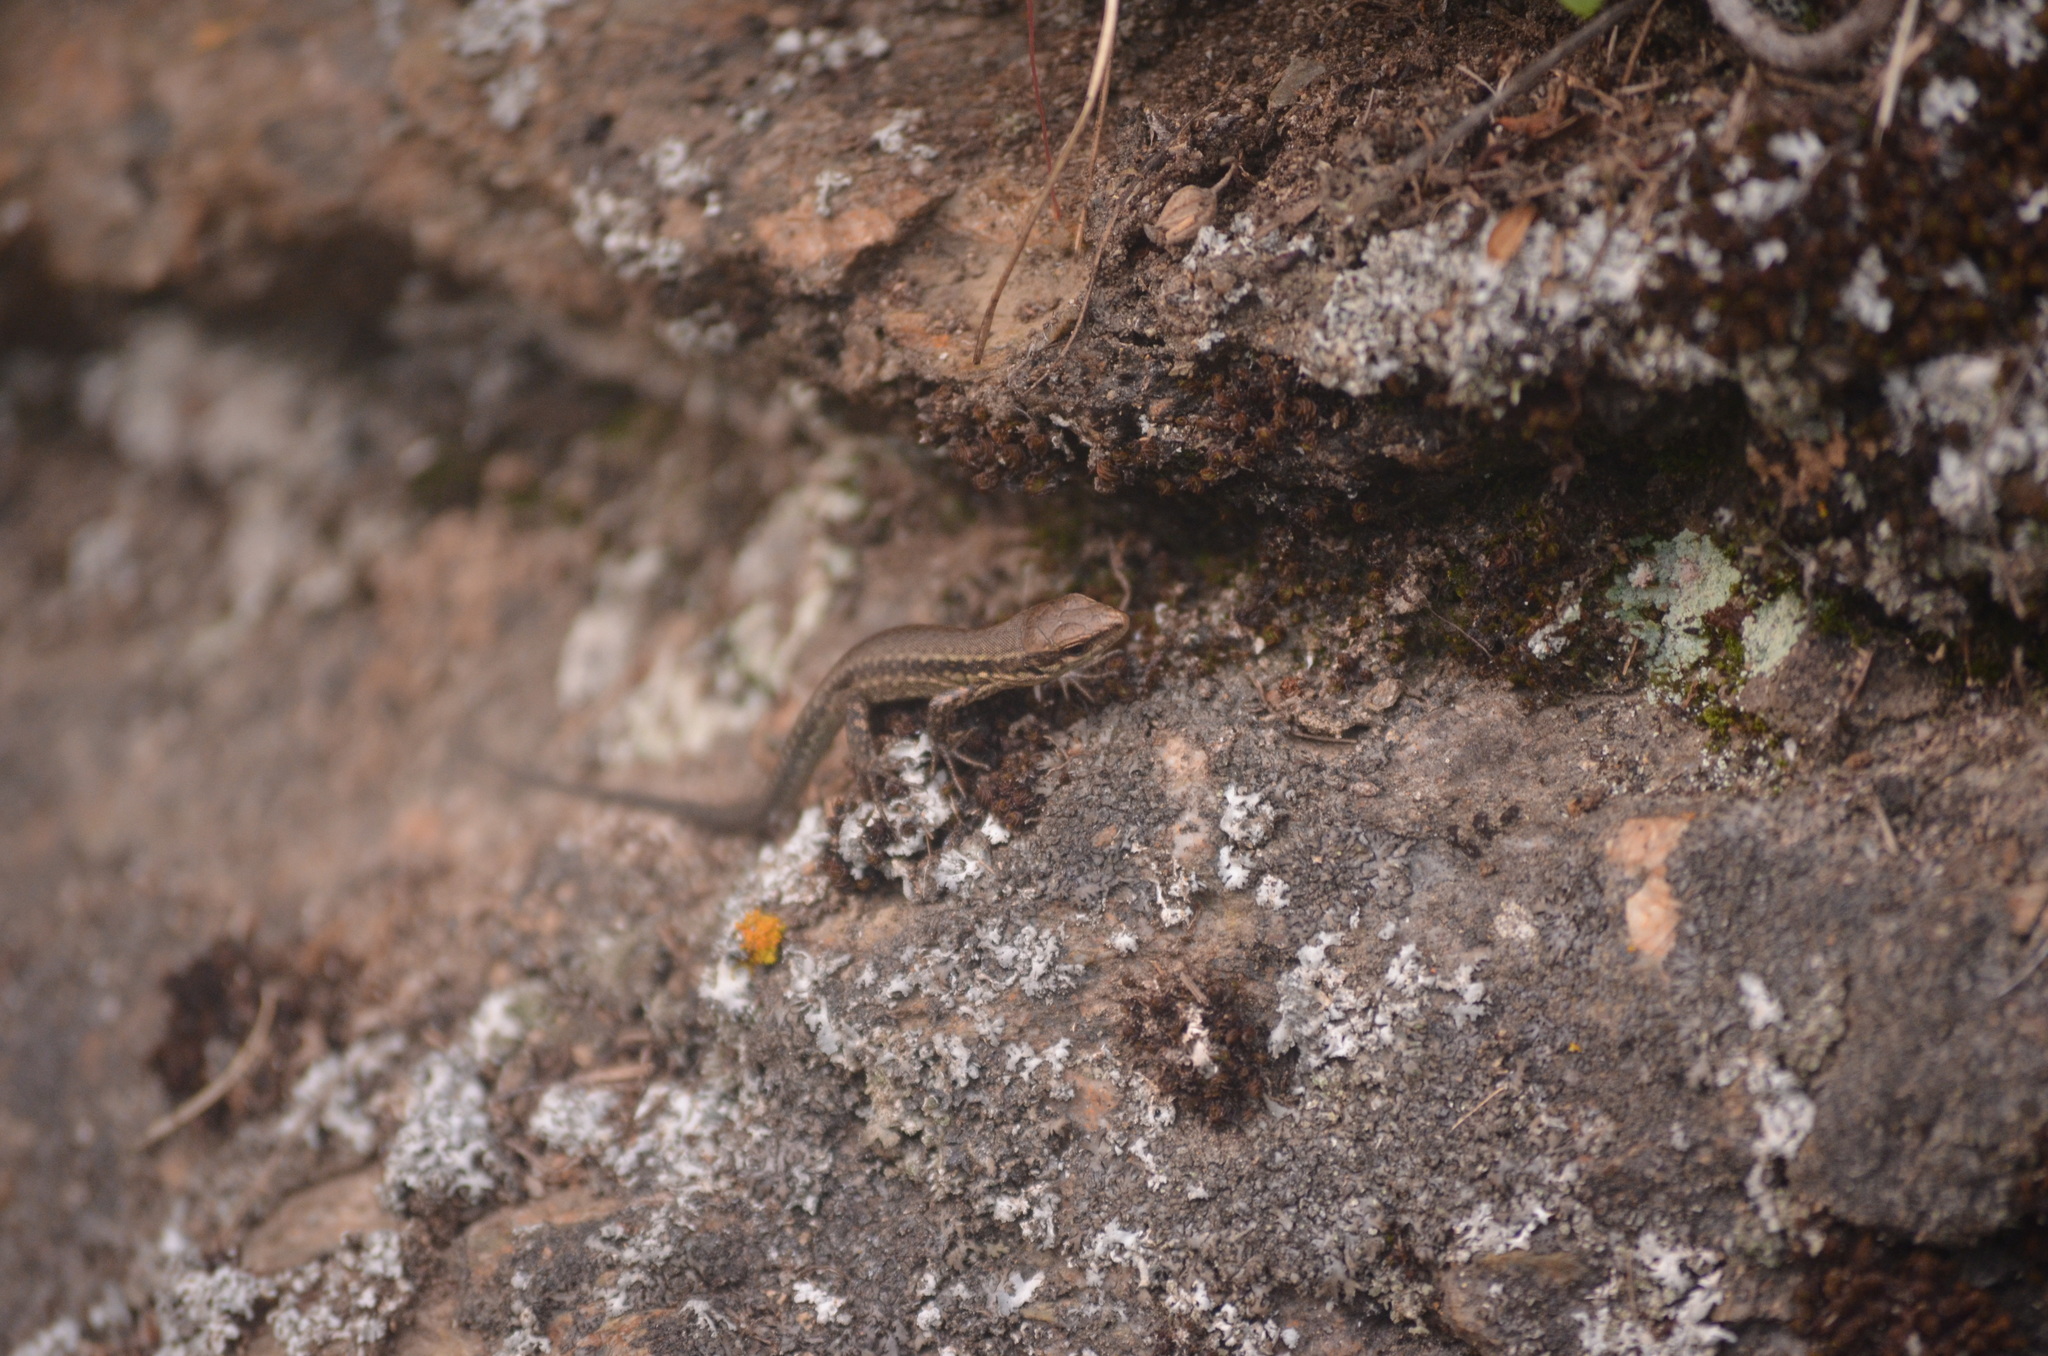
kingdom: Animalia
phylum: Chordata
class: Squamata
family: Lacertidae
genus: Podarcis
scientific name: Podarcis muralis
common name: Common wall lizard
